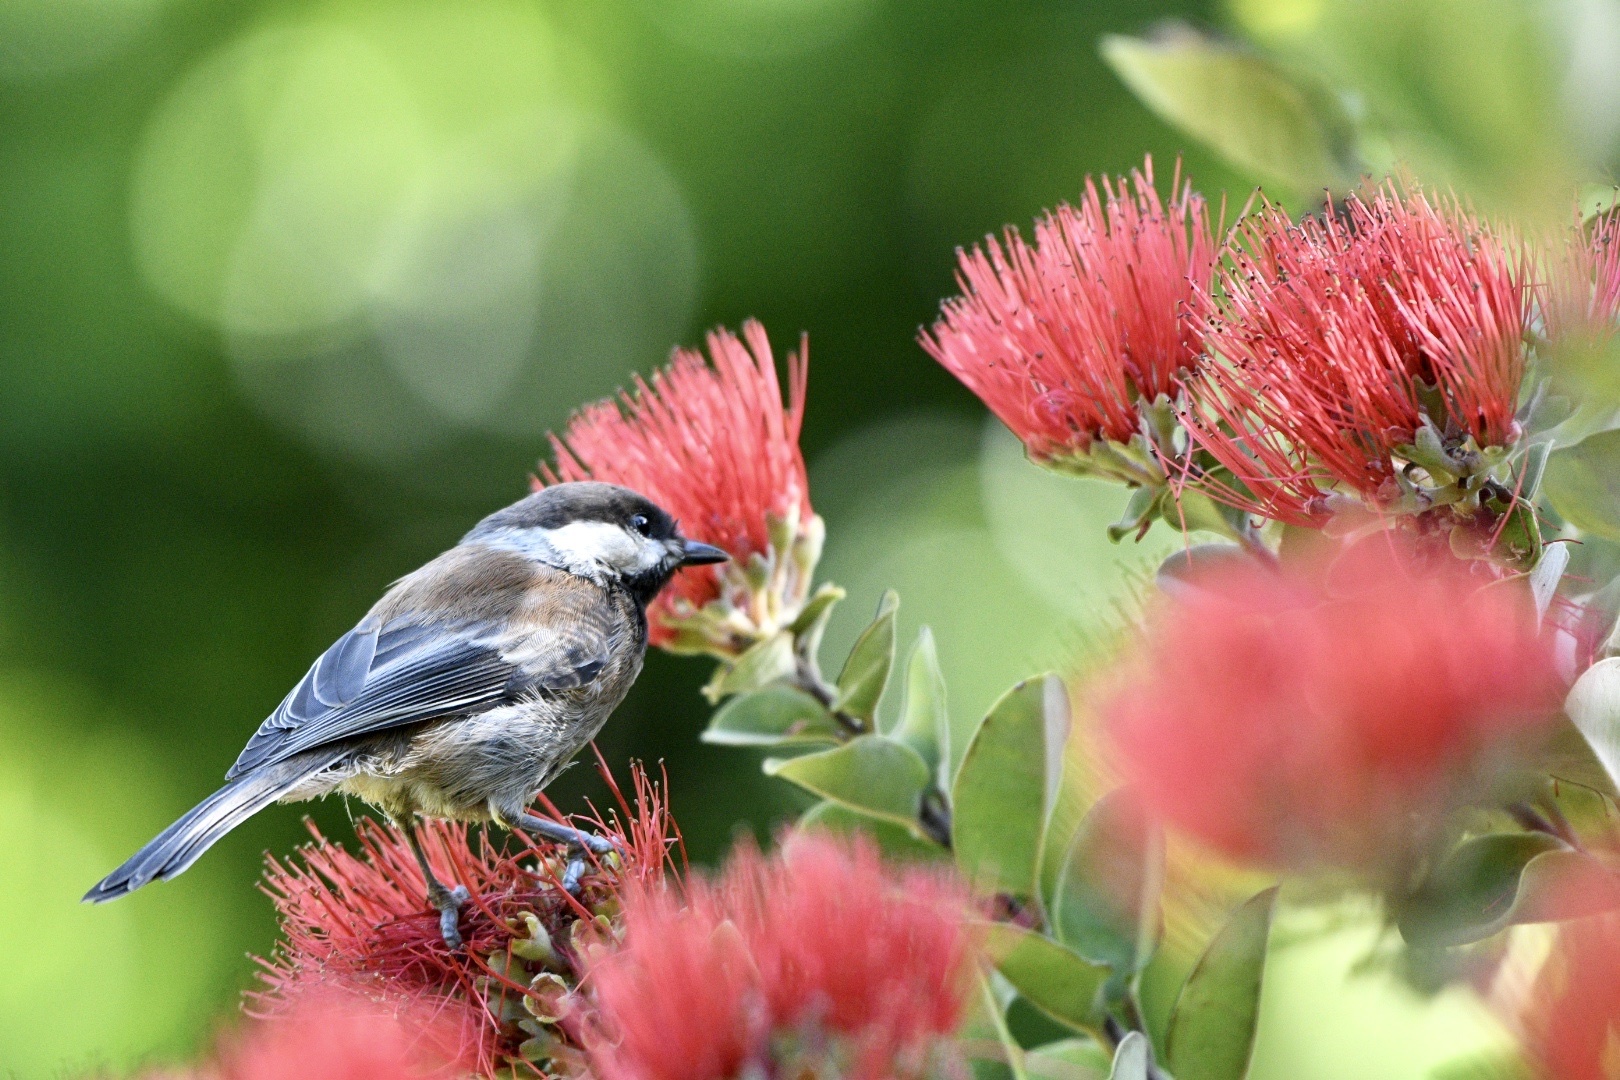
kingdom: Animalia
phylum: Chordata
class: Aves
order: Passeriformes
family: Paridae
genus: Poecile
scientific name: Poecile rufescens
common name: Chestnut-backed chickadee
